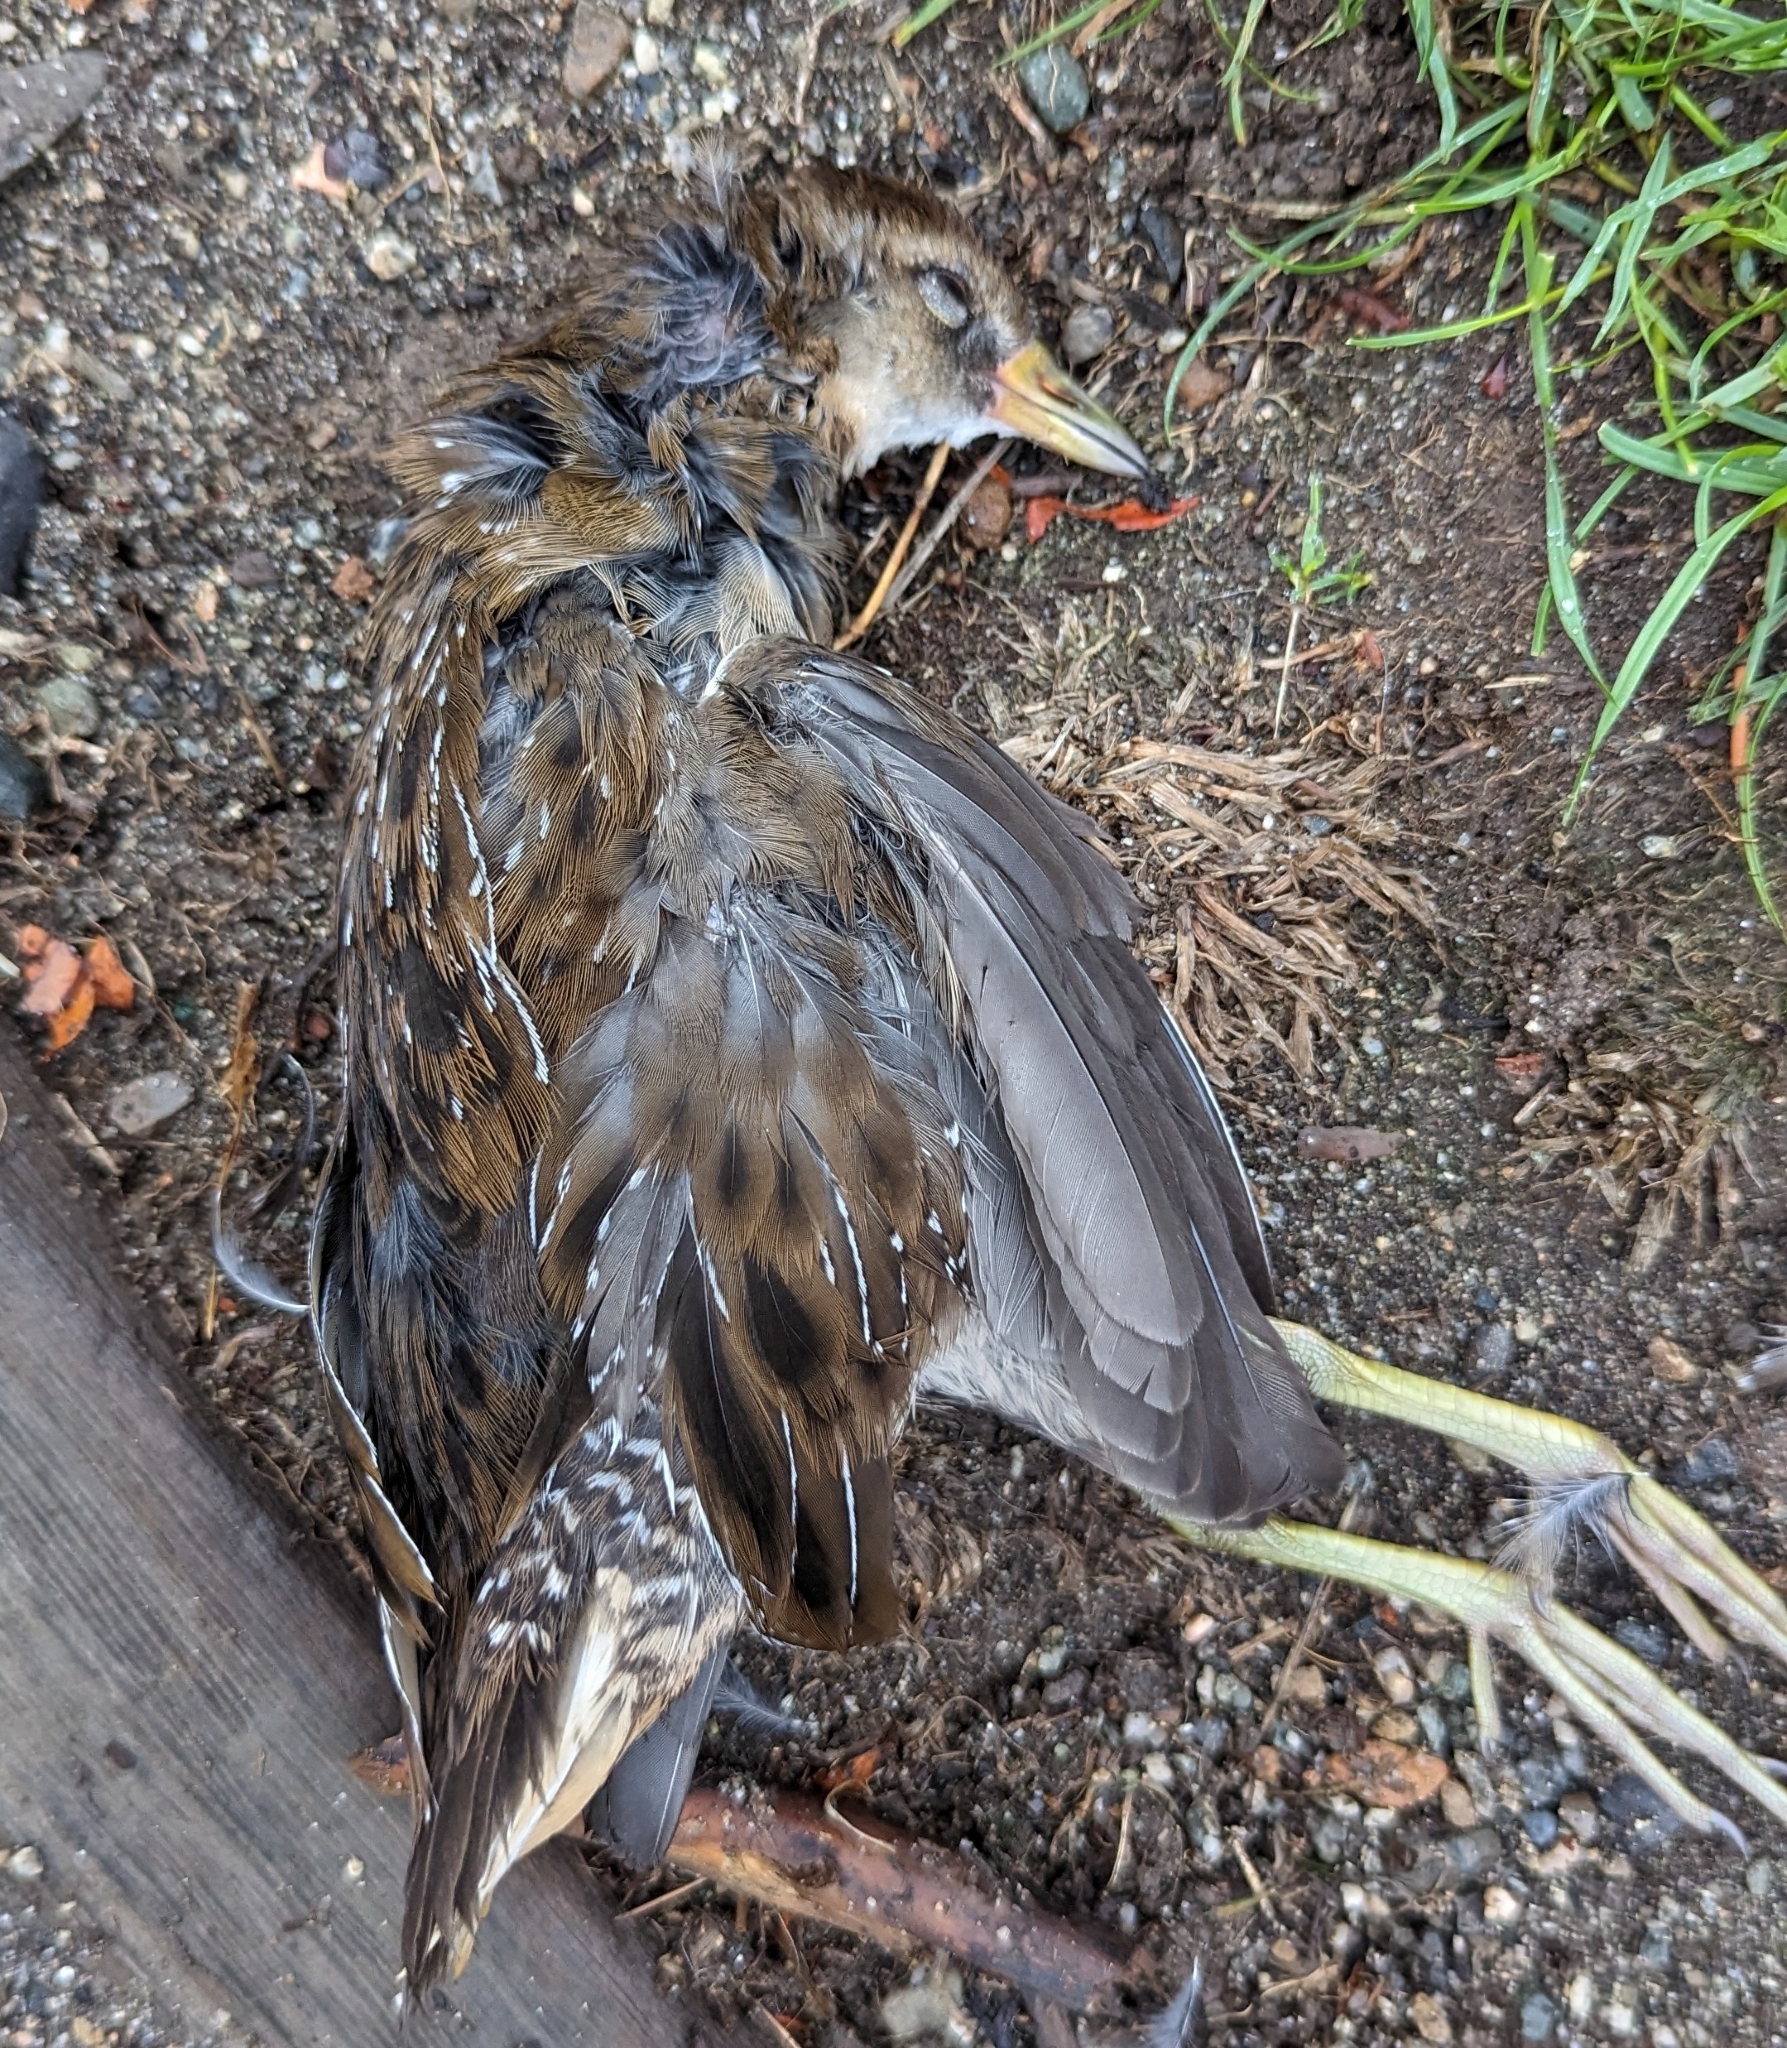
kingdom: Animalia
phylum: Chordata
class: Aves
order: Gruiformes
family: Rallidae
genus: Porzana
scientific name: Porzana carolina
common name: Sora
